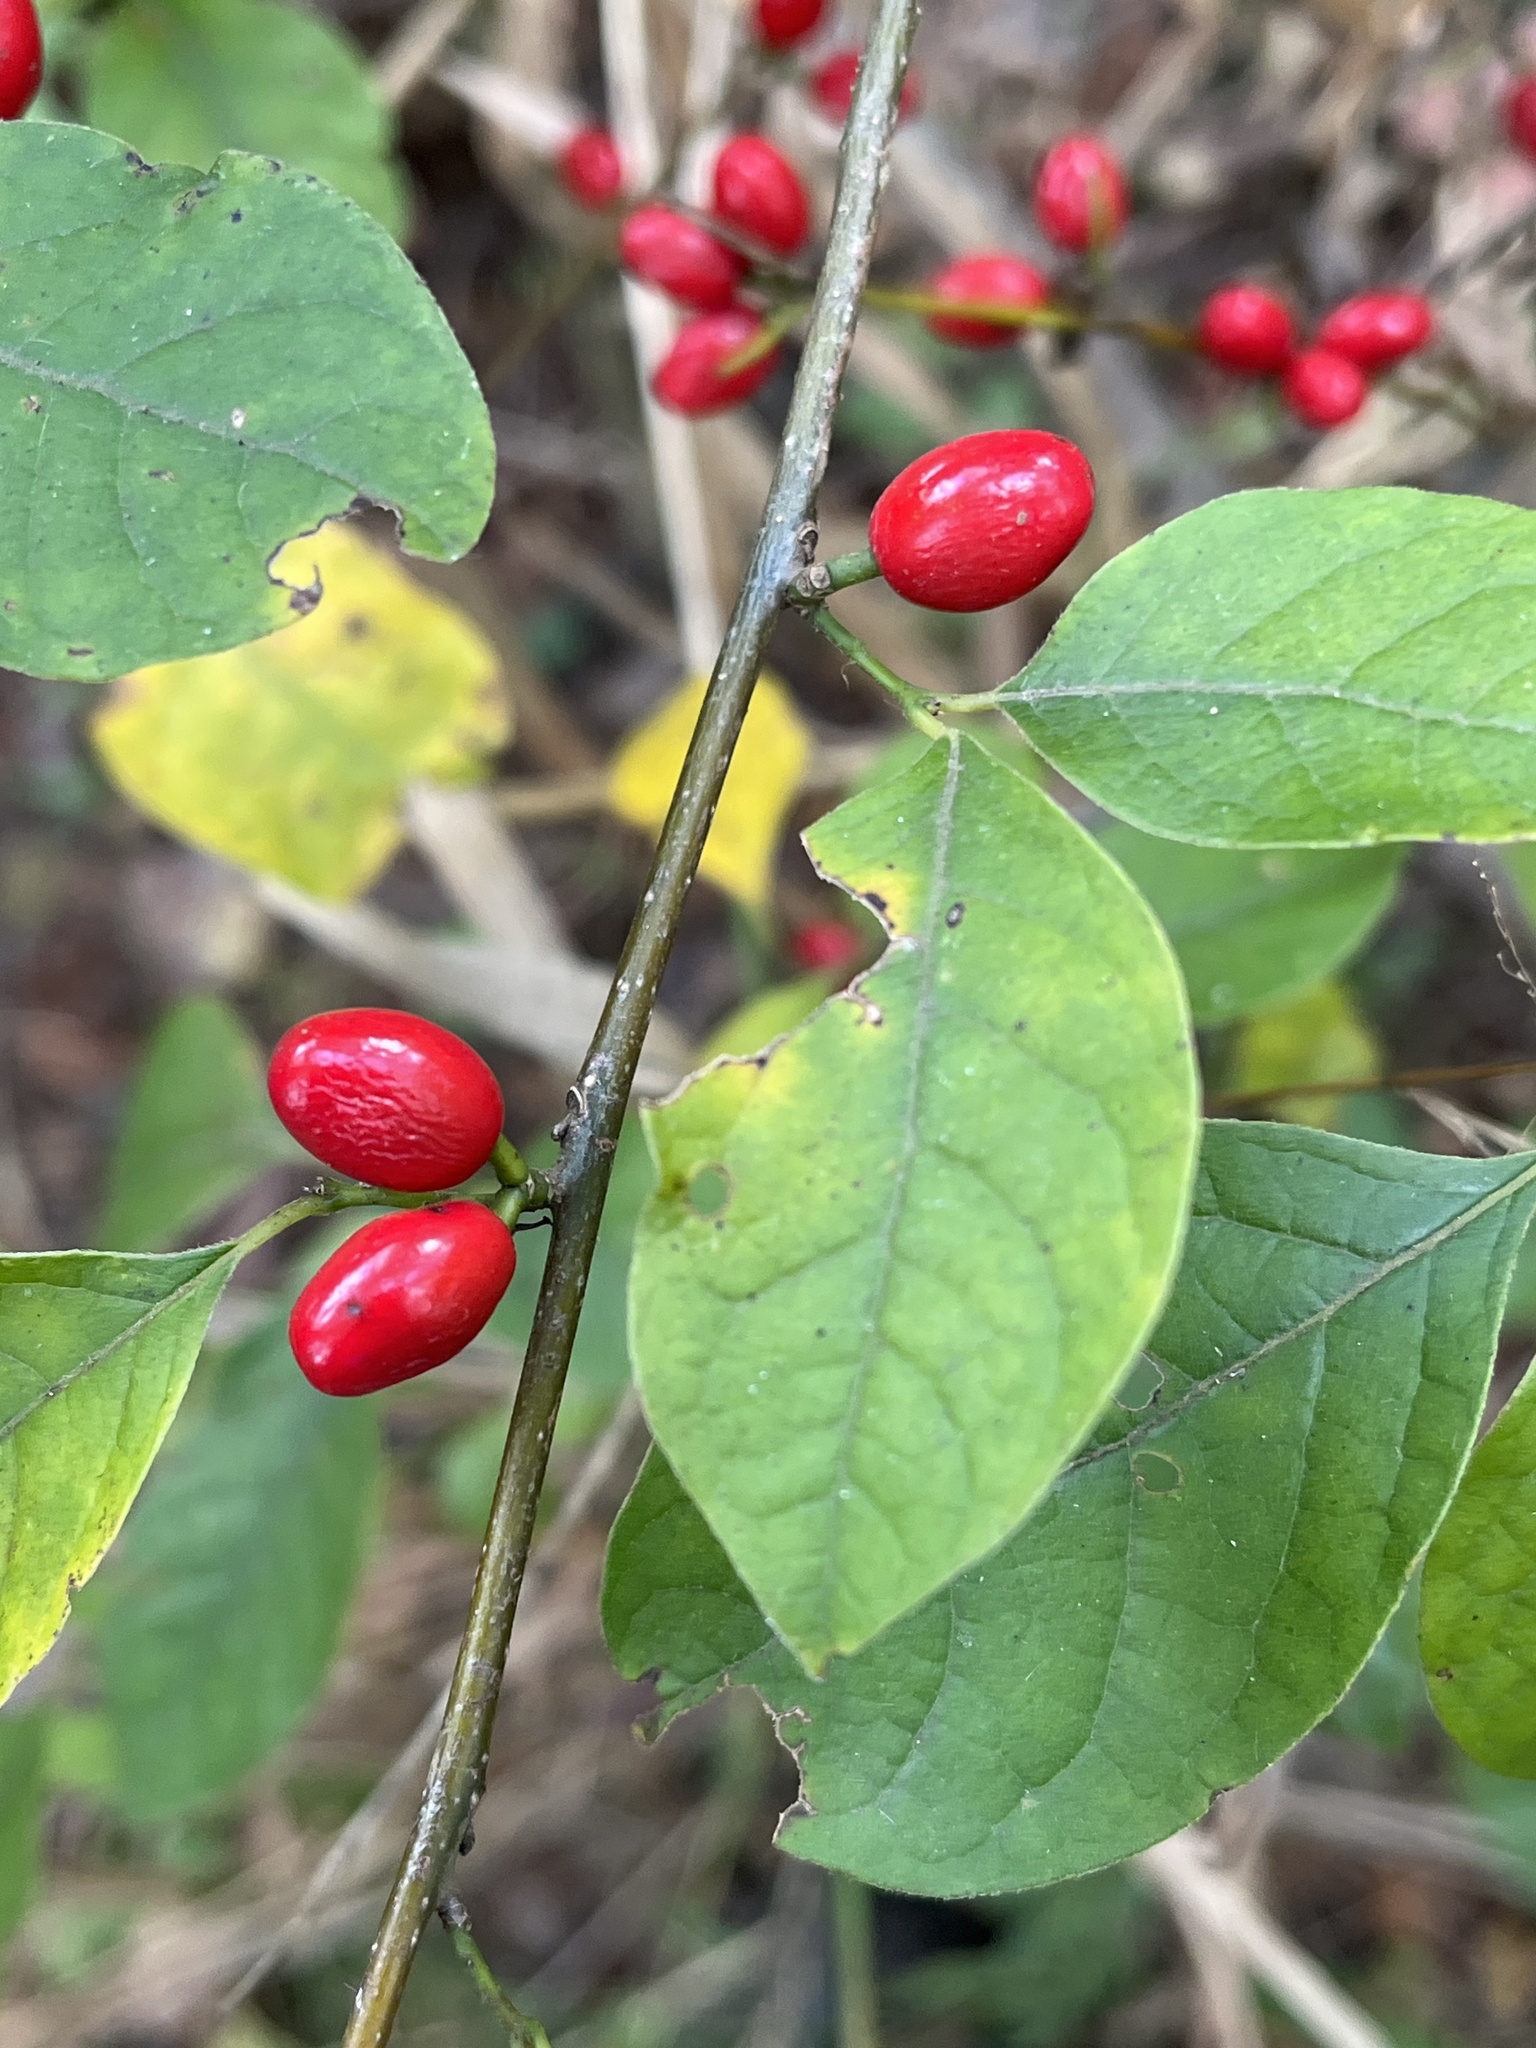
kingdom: Plantae
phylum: Tracheophyta
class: Magnoliopsida
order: Laurales
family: Lauraceae
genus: Lindera
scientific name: Lindera benzoin
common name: Spicebush
